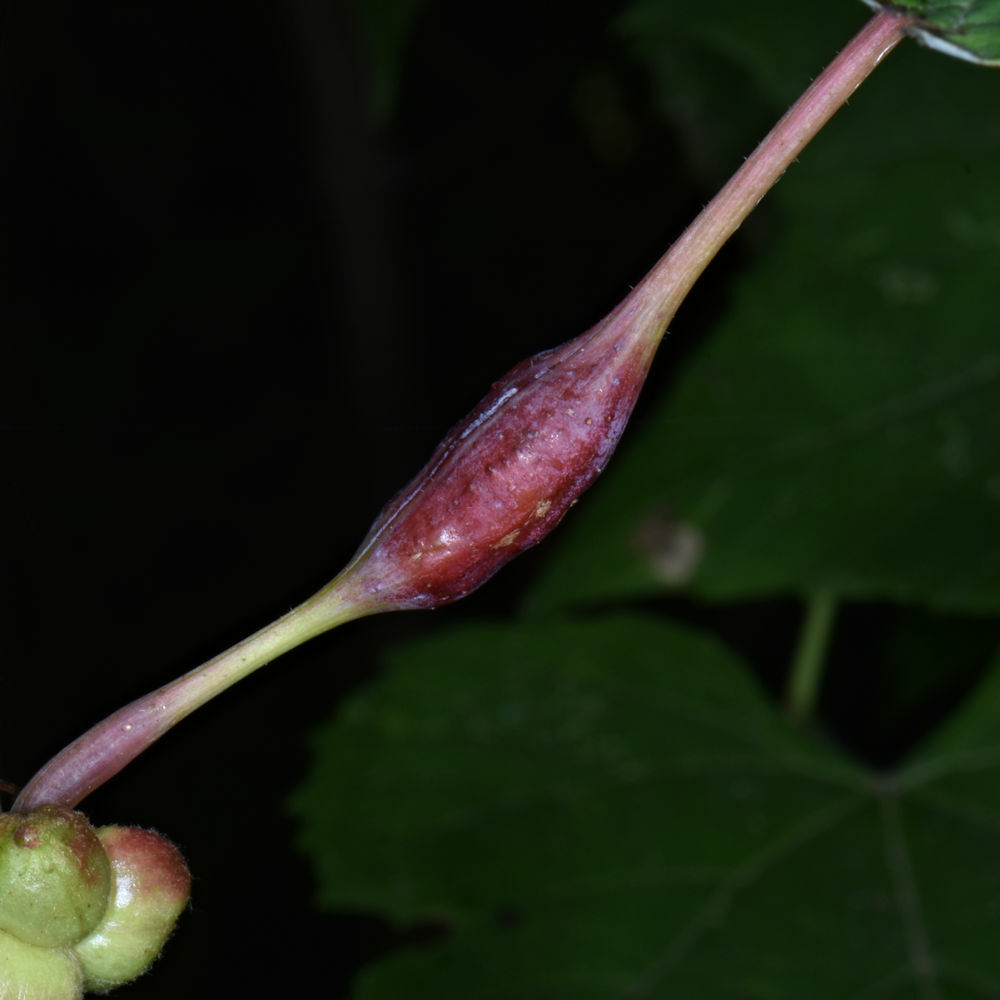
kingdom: Animalia
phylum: Arthropoda
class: Insecta
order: Diptera
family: Cecidomyiidae
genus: Neolasioptera
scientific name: Neolasioptera vitinea
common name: Grape leaf petiole gall
